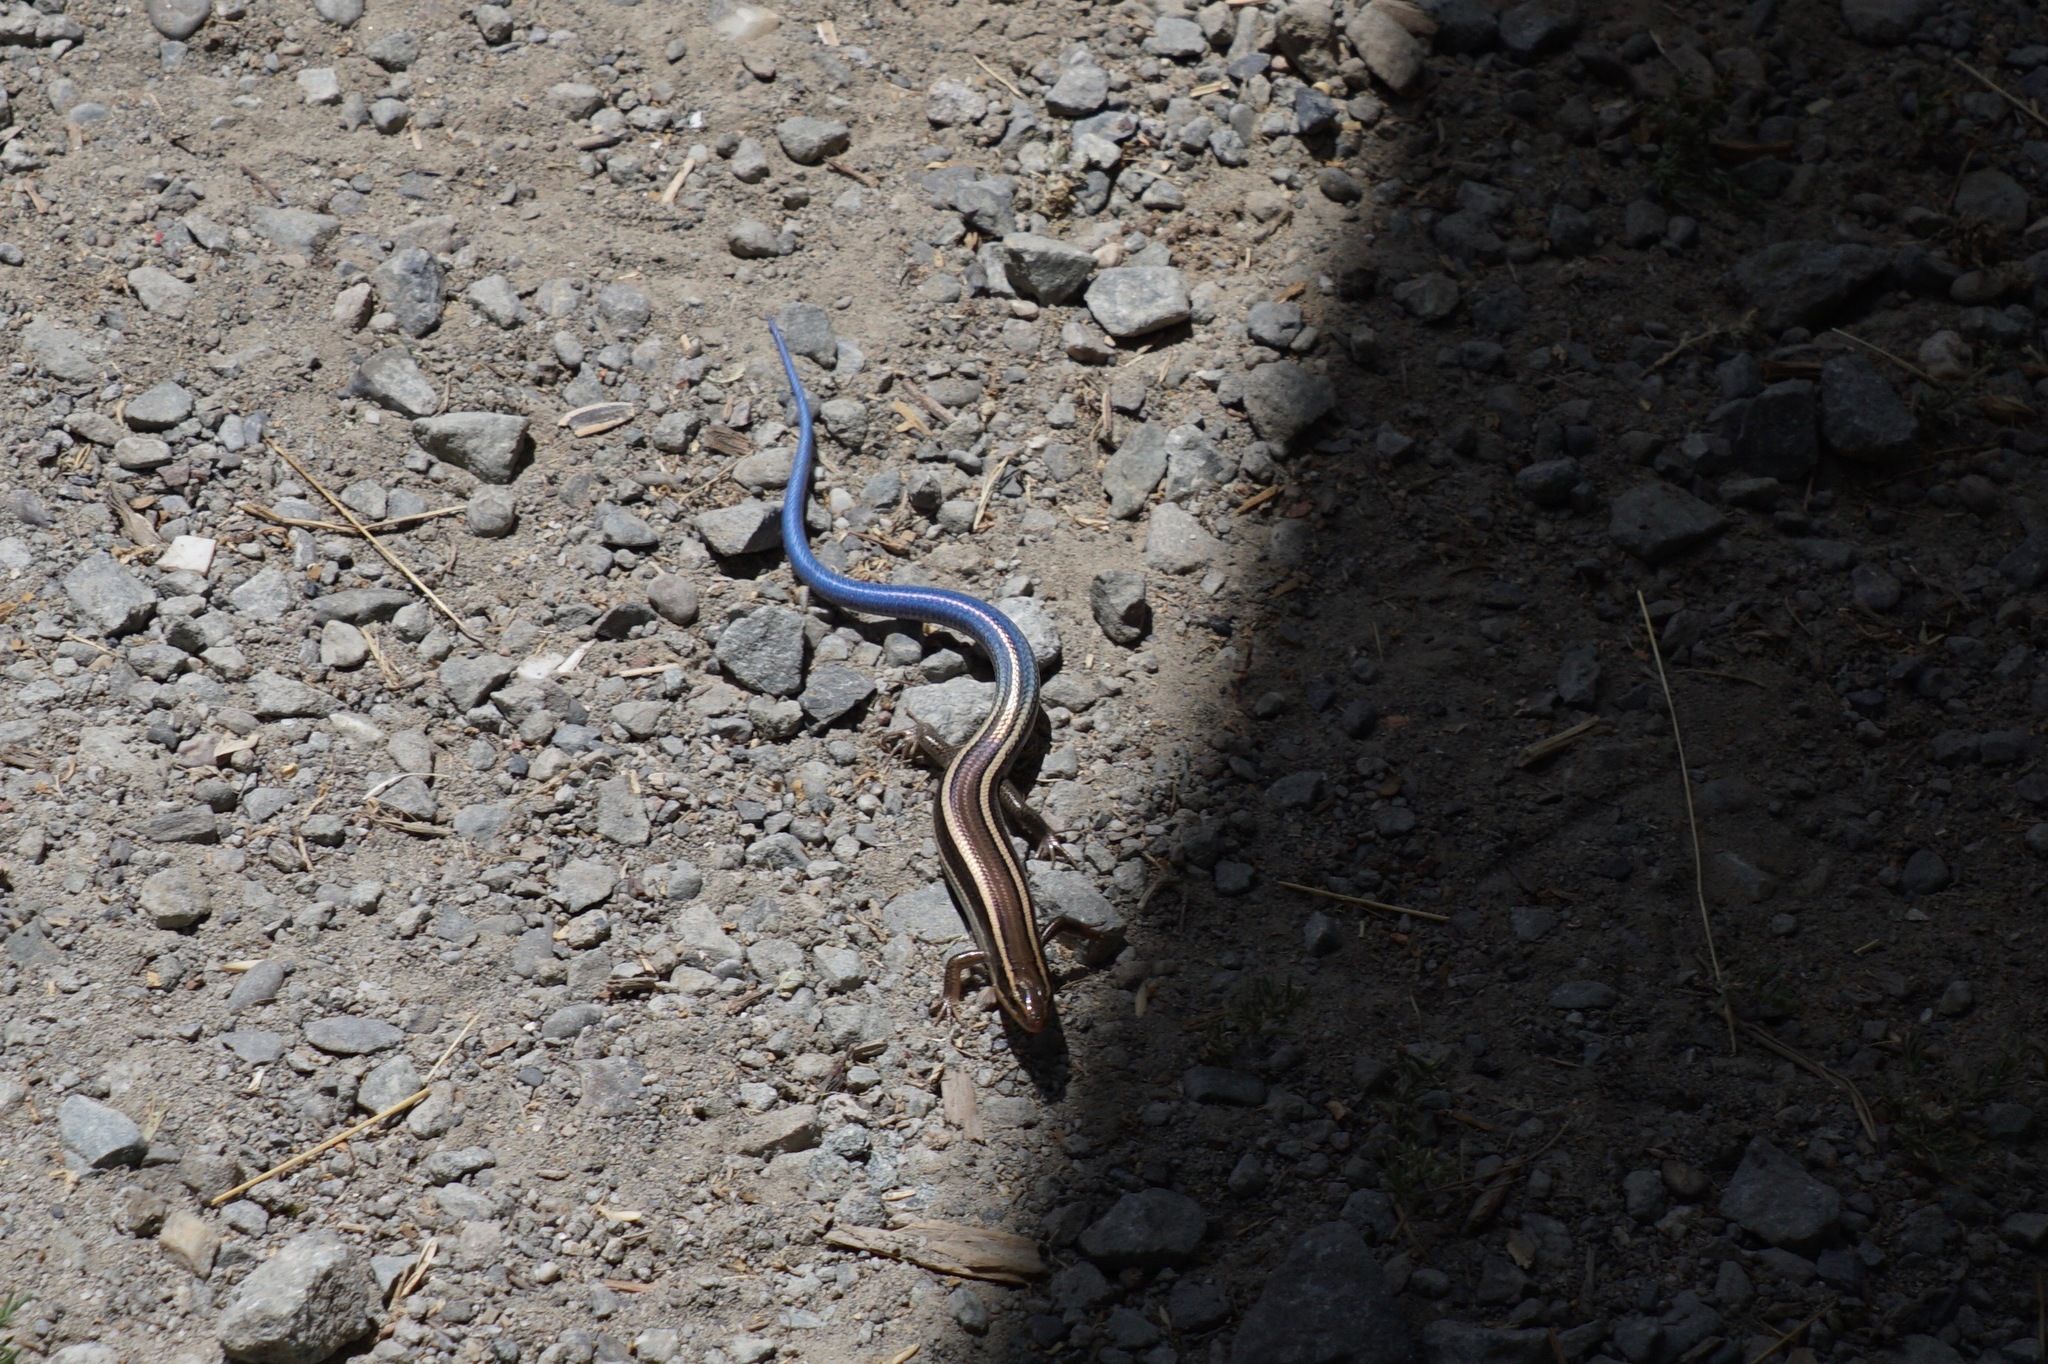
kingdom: Animalia
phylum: Chordata
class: Squamata
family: Scincidae
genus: Plestiodon
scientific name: Plestiodon skiltonianus
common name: Coronado island skink [interparietalis]
